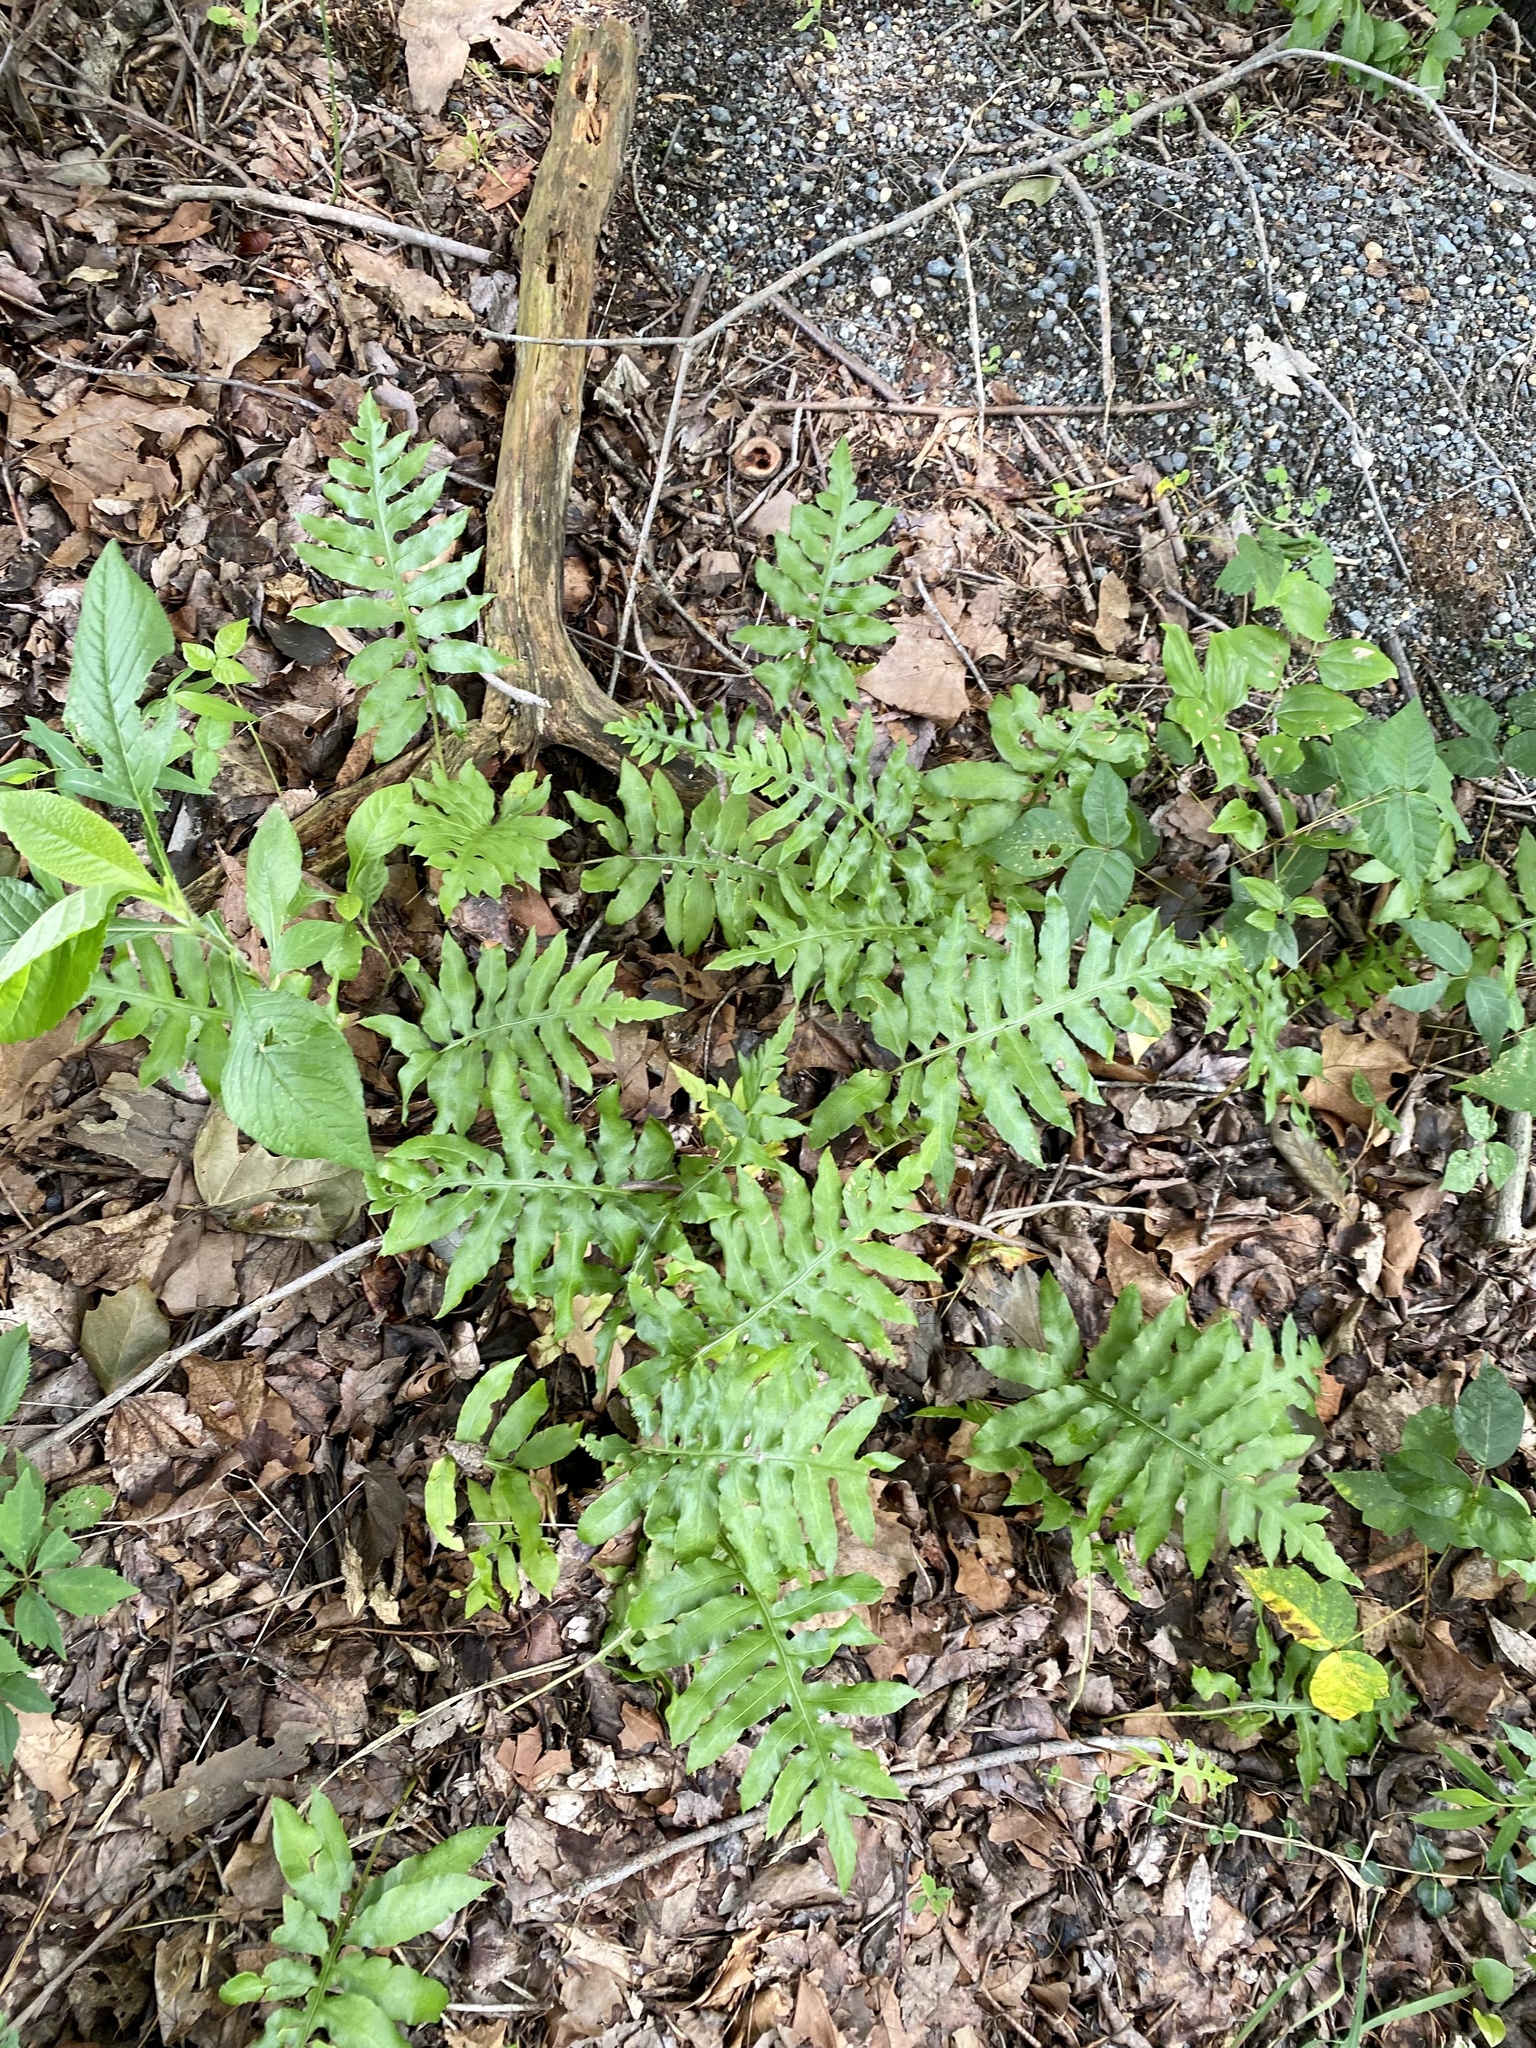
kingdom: Plantae
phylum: Tracheophyta
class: Polypodiopsida
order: Polypodiales
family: Blechnaceae
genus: Lorinseria
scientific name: Lorinseria areolata
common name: Dwarf chain fern
